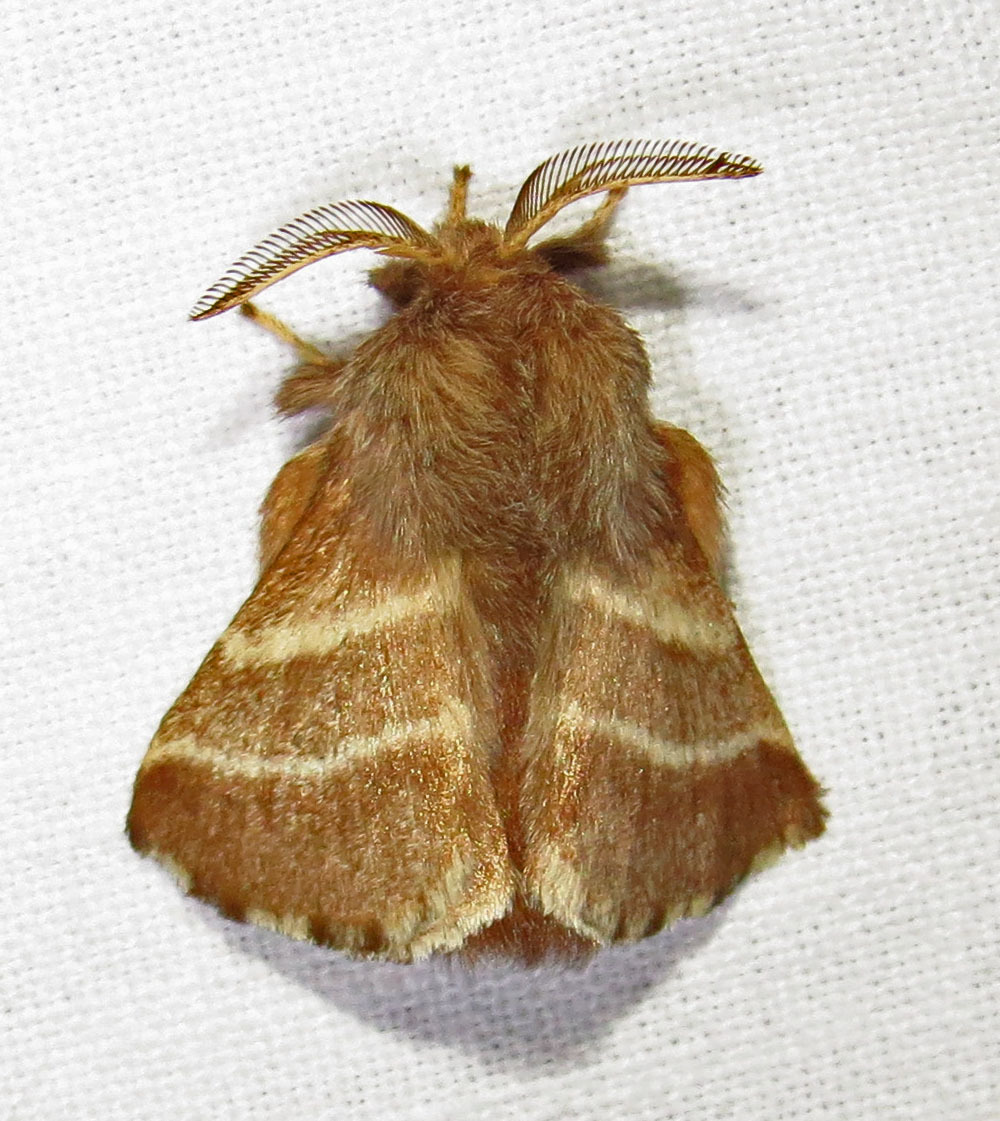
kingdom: Animalia
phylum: Arthropoda
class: Insecta
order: Lepidoptera
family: Lasiocampidae
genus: Malacosoma
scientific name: Malacosoma americana
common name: Eastern tent caterpillar moth
